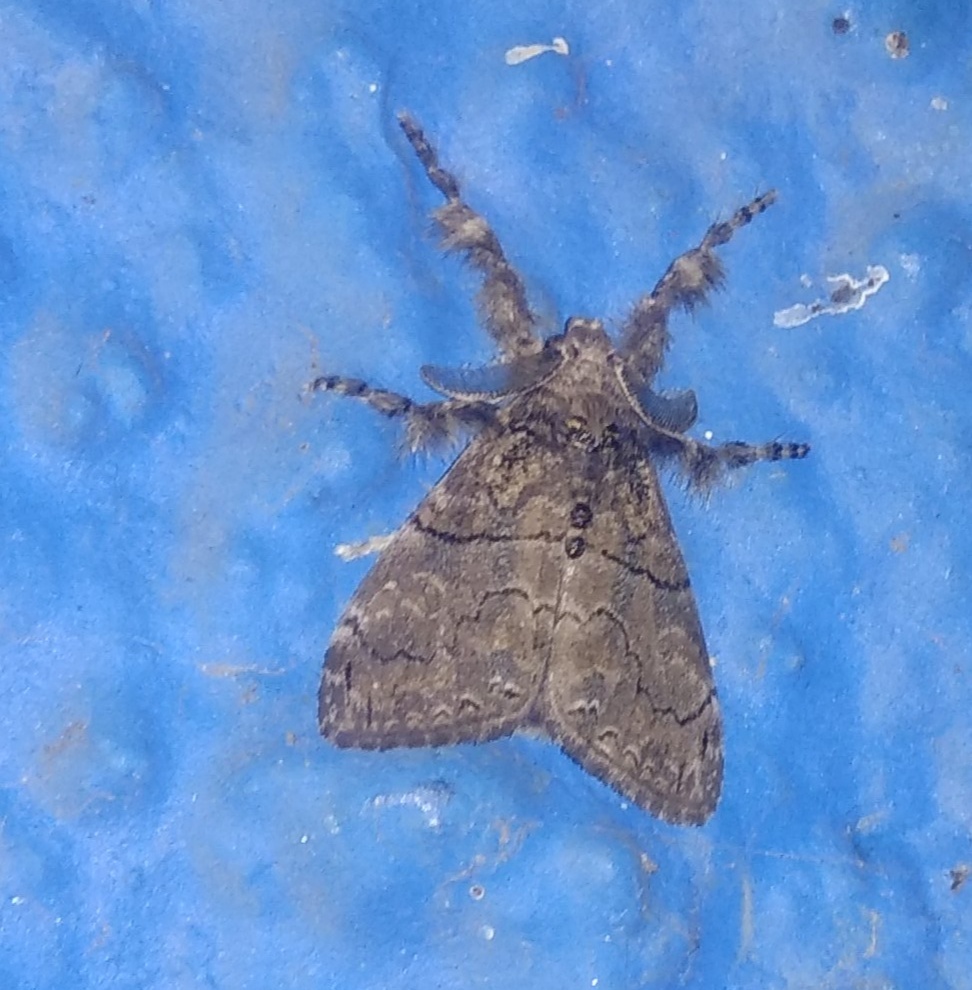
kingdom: Animalia
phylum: Arthropoda
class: Insecta
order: Lepidoptera
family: Erebidae
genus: Orgyia
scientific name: Orgyia postica
